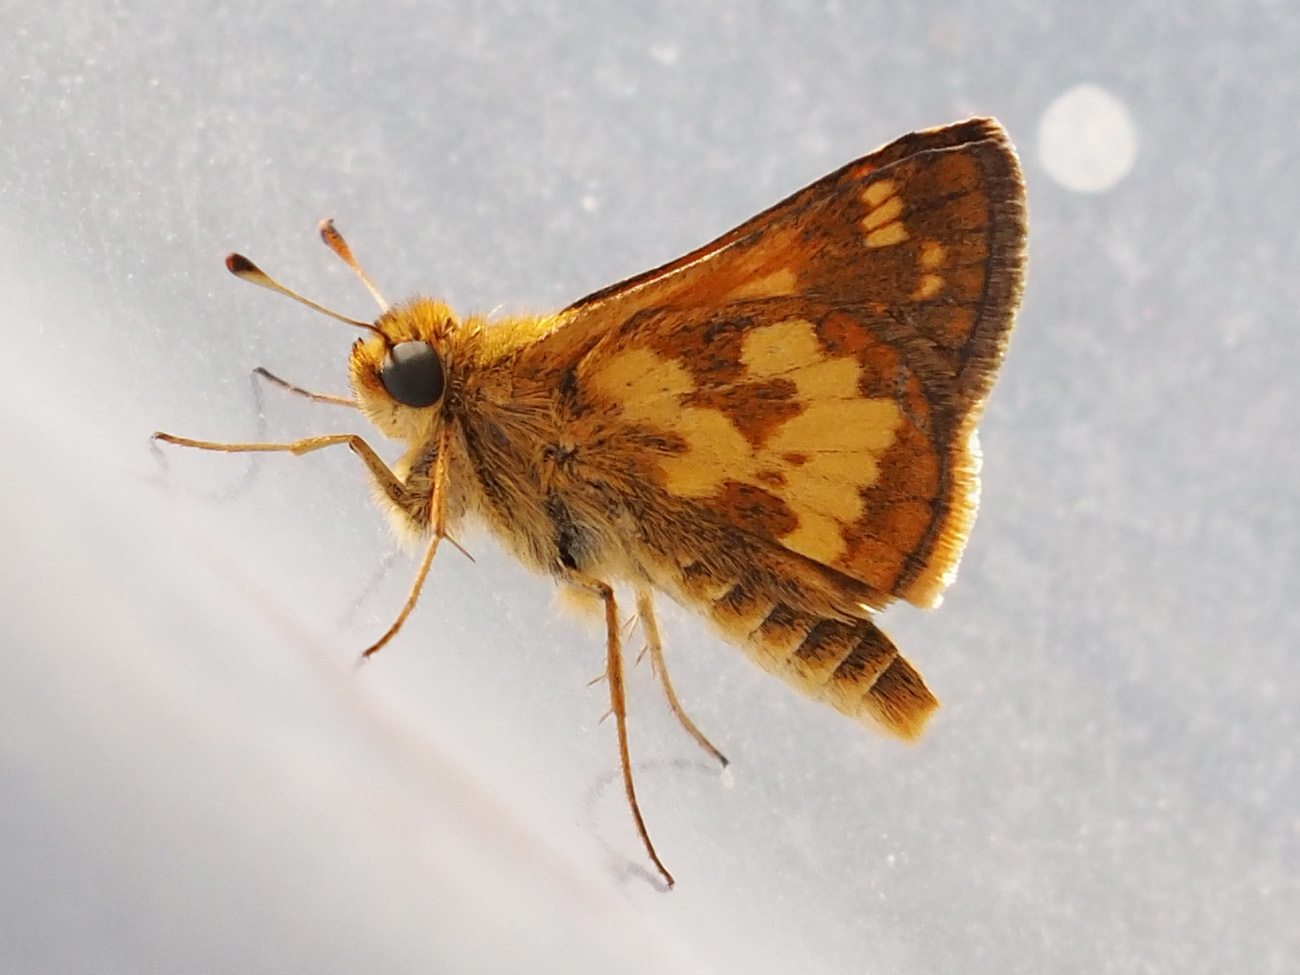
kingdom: Animalia
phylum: Arthropoda
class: Insecta
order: Lepidoptera
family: Hesperiidae
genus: Polites
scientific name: Polites coras
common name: Peck's skipper
